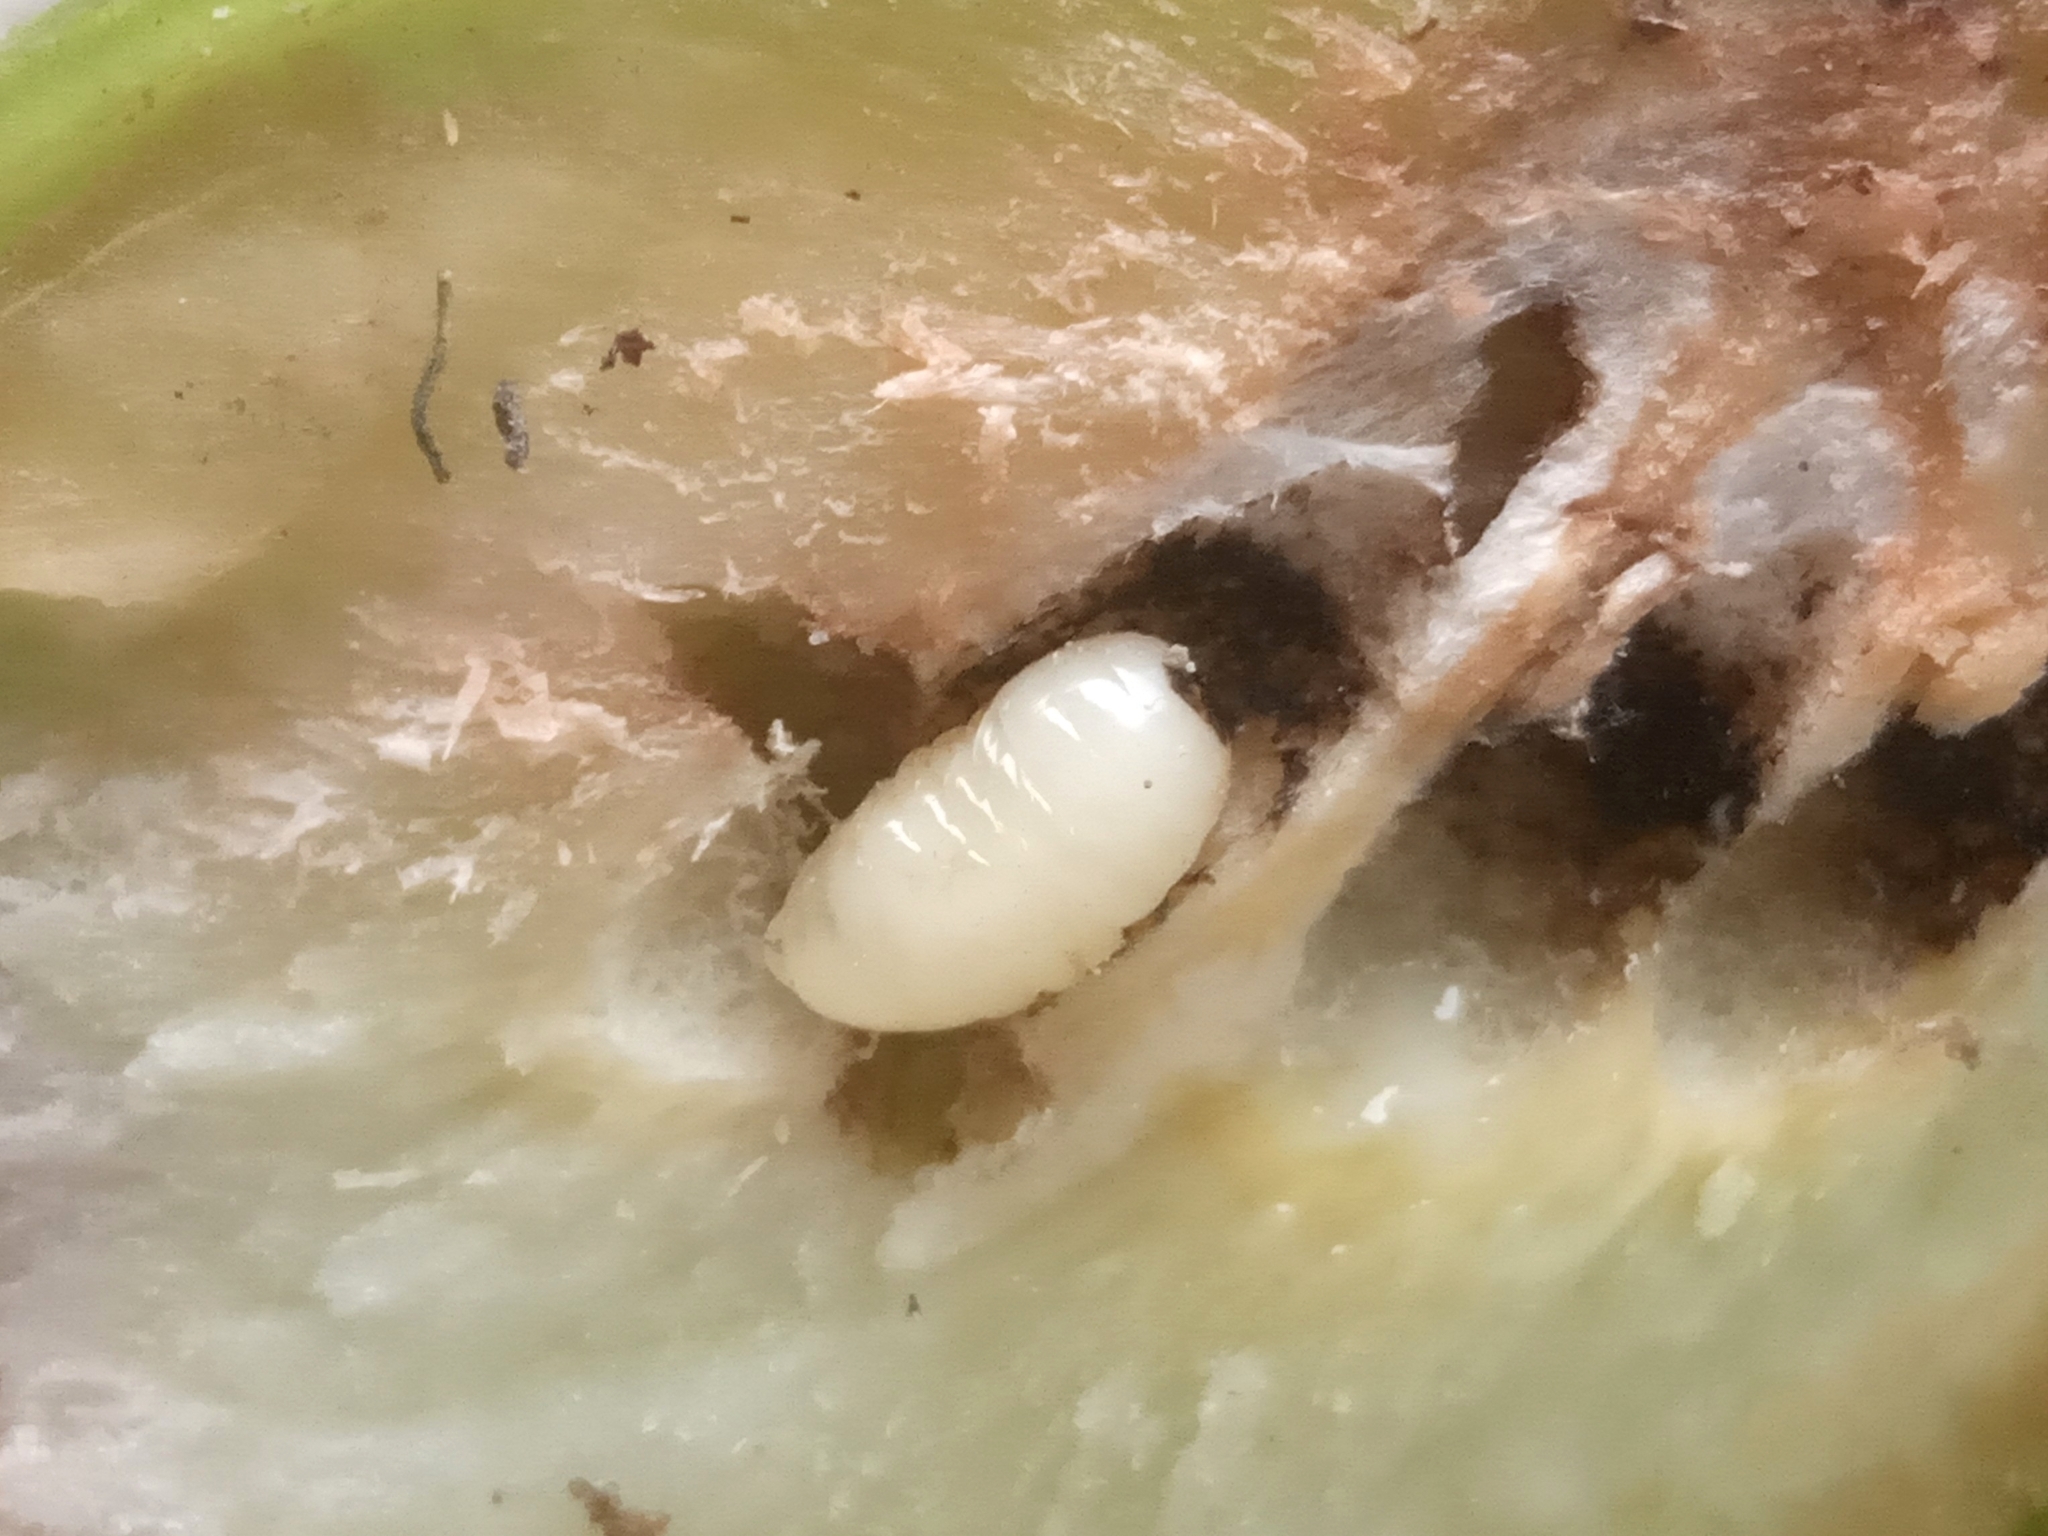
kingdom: Animalia
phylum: Arthropoda
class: Insecta
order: Diptera
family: Tephritidae
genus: Urophora
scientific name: Urophora cardui
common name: Fruit fly
